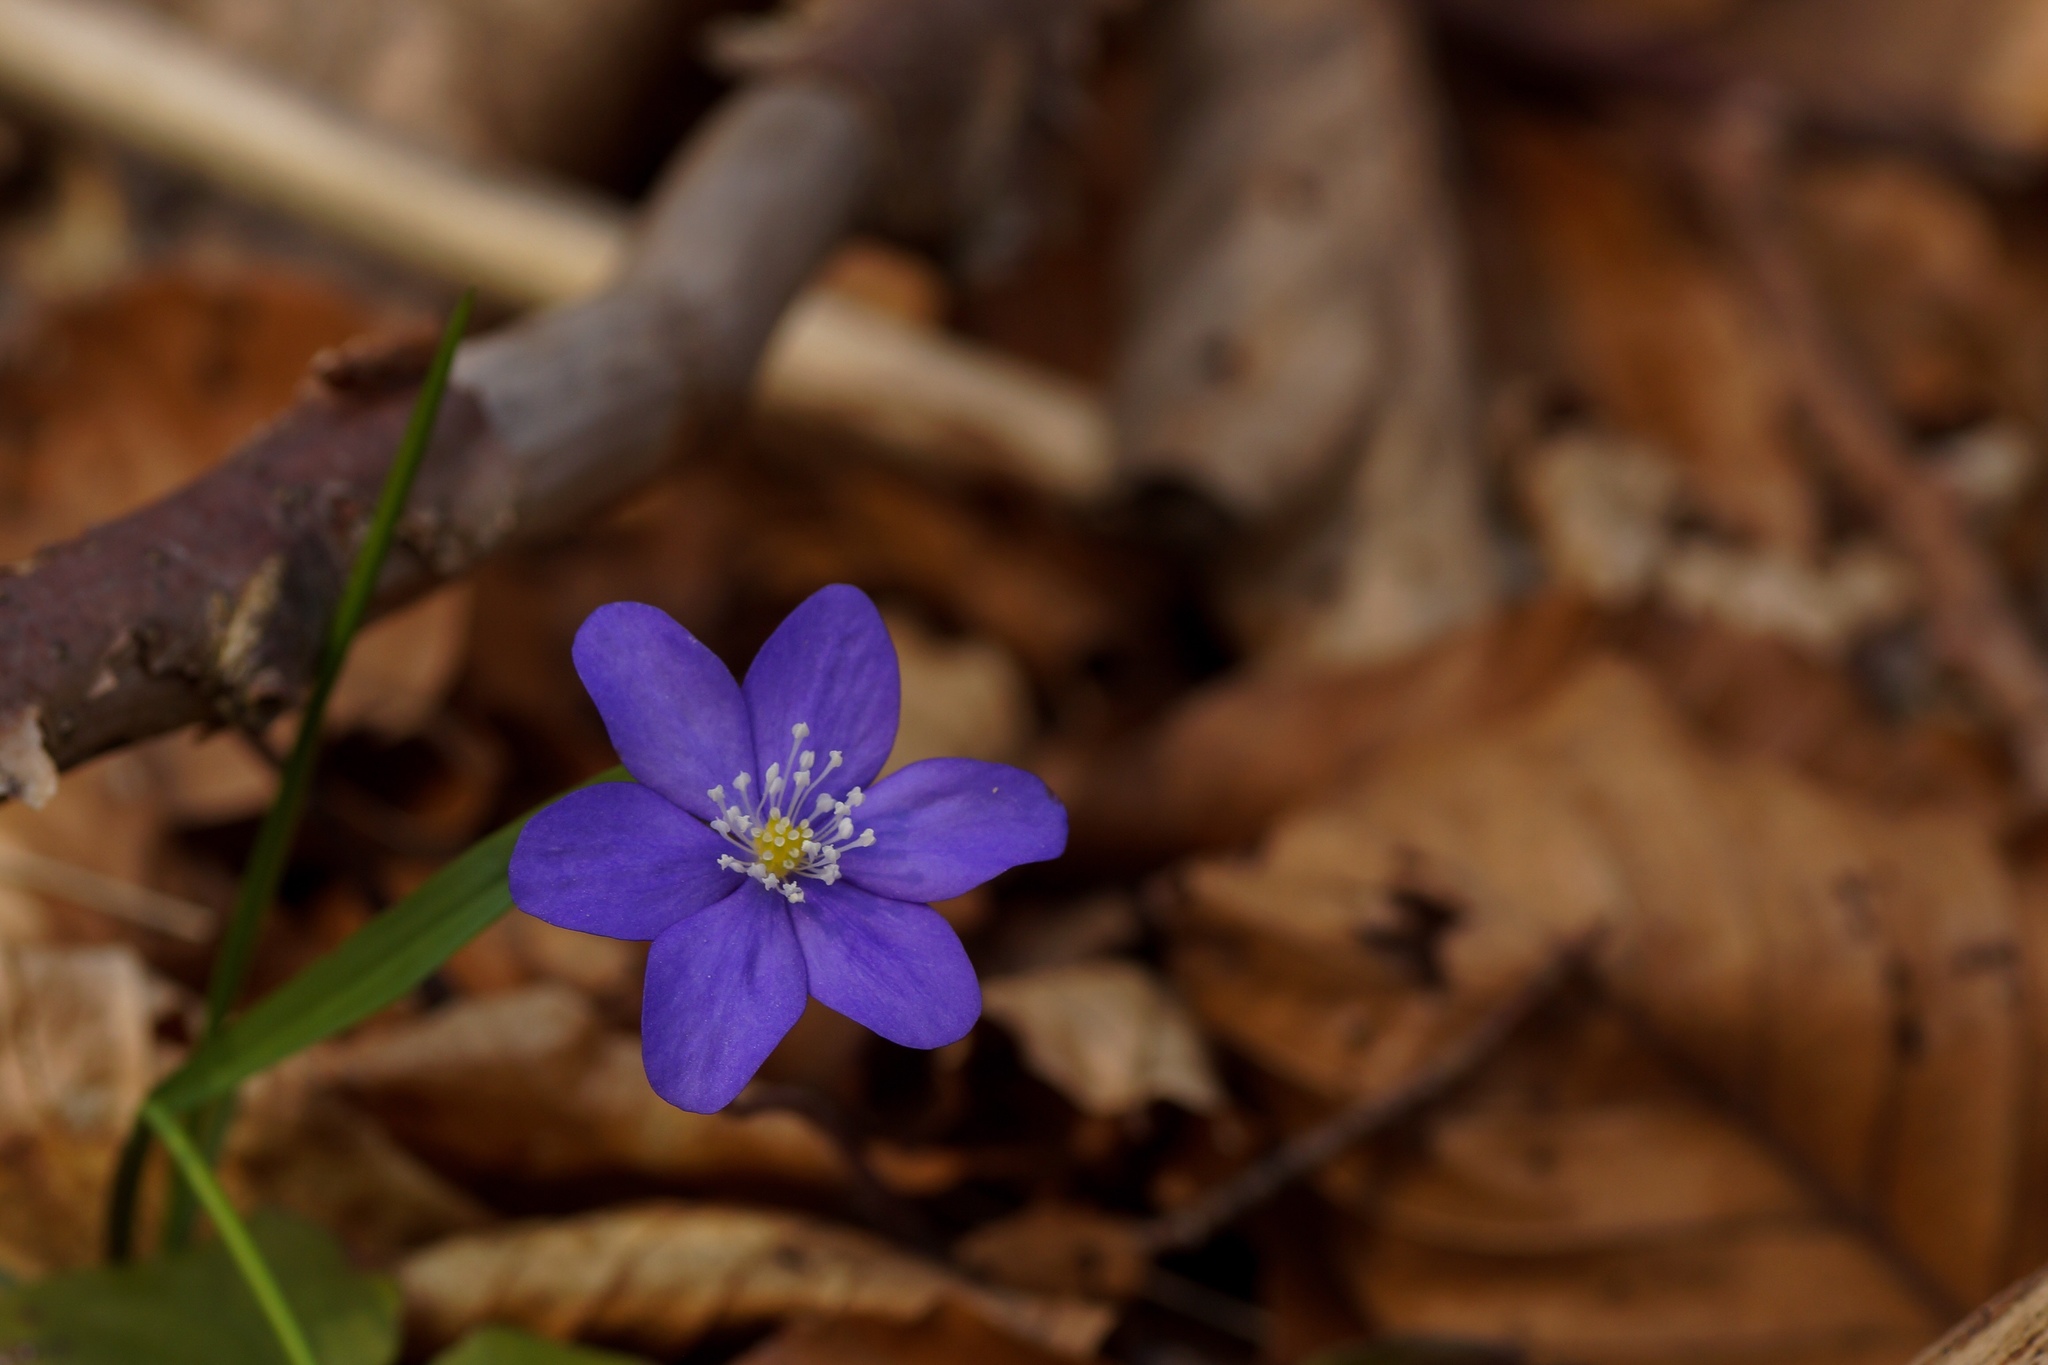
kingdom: Plantae
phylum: Tracheophyta
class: Magnoliopsida
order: Ranunculales
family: Ranunculaceae
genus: Hepatica
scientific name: Hepatica nobilis
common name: Liverleaf
